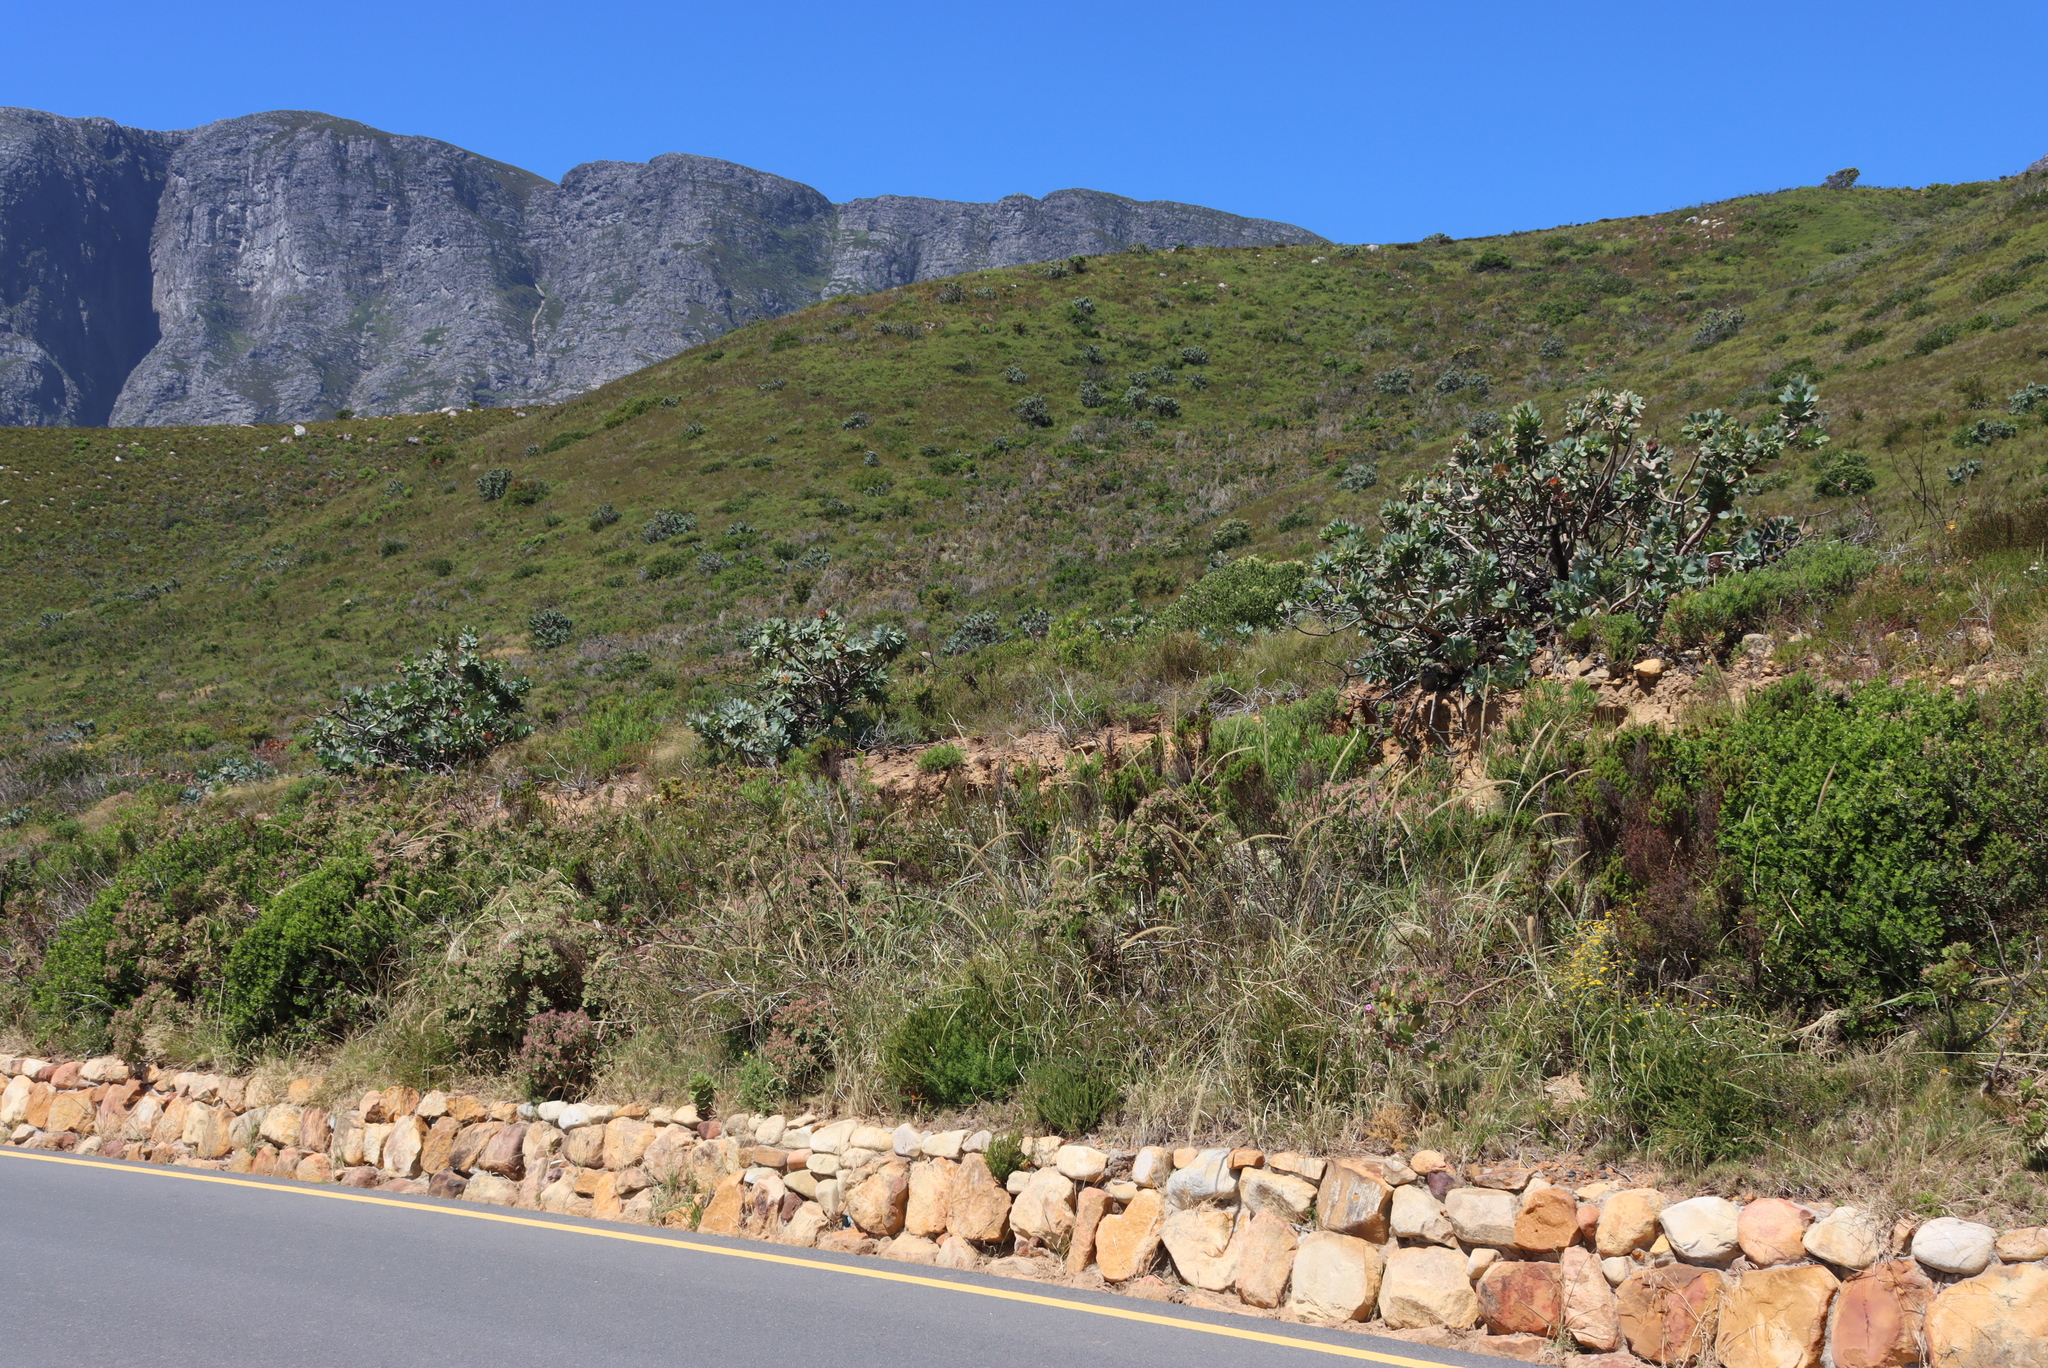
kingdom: Plantae
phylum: Tracheophyta
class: Magnoliopsida
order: Proteales
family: Proteaceae
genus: Protea
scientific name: Protea nitida
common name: Tree protea
